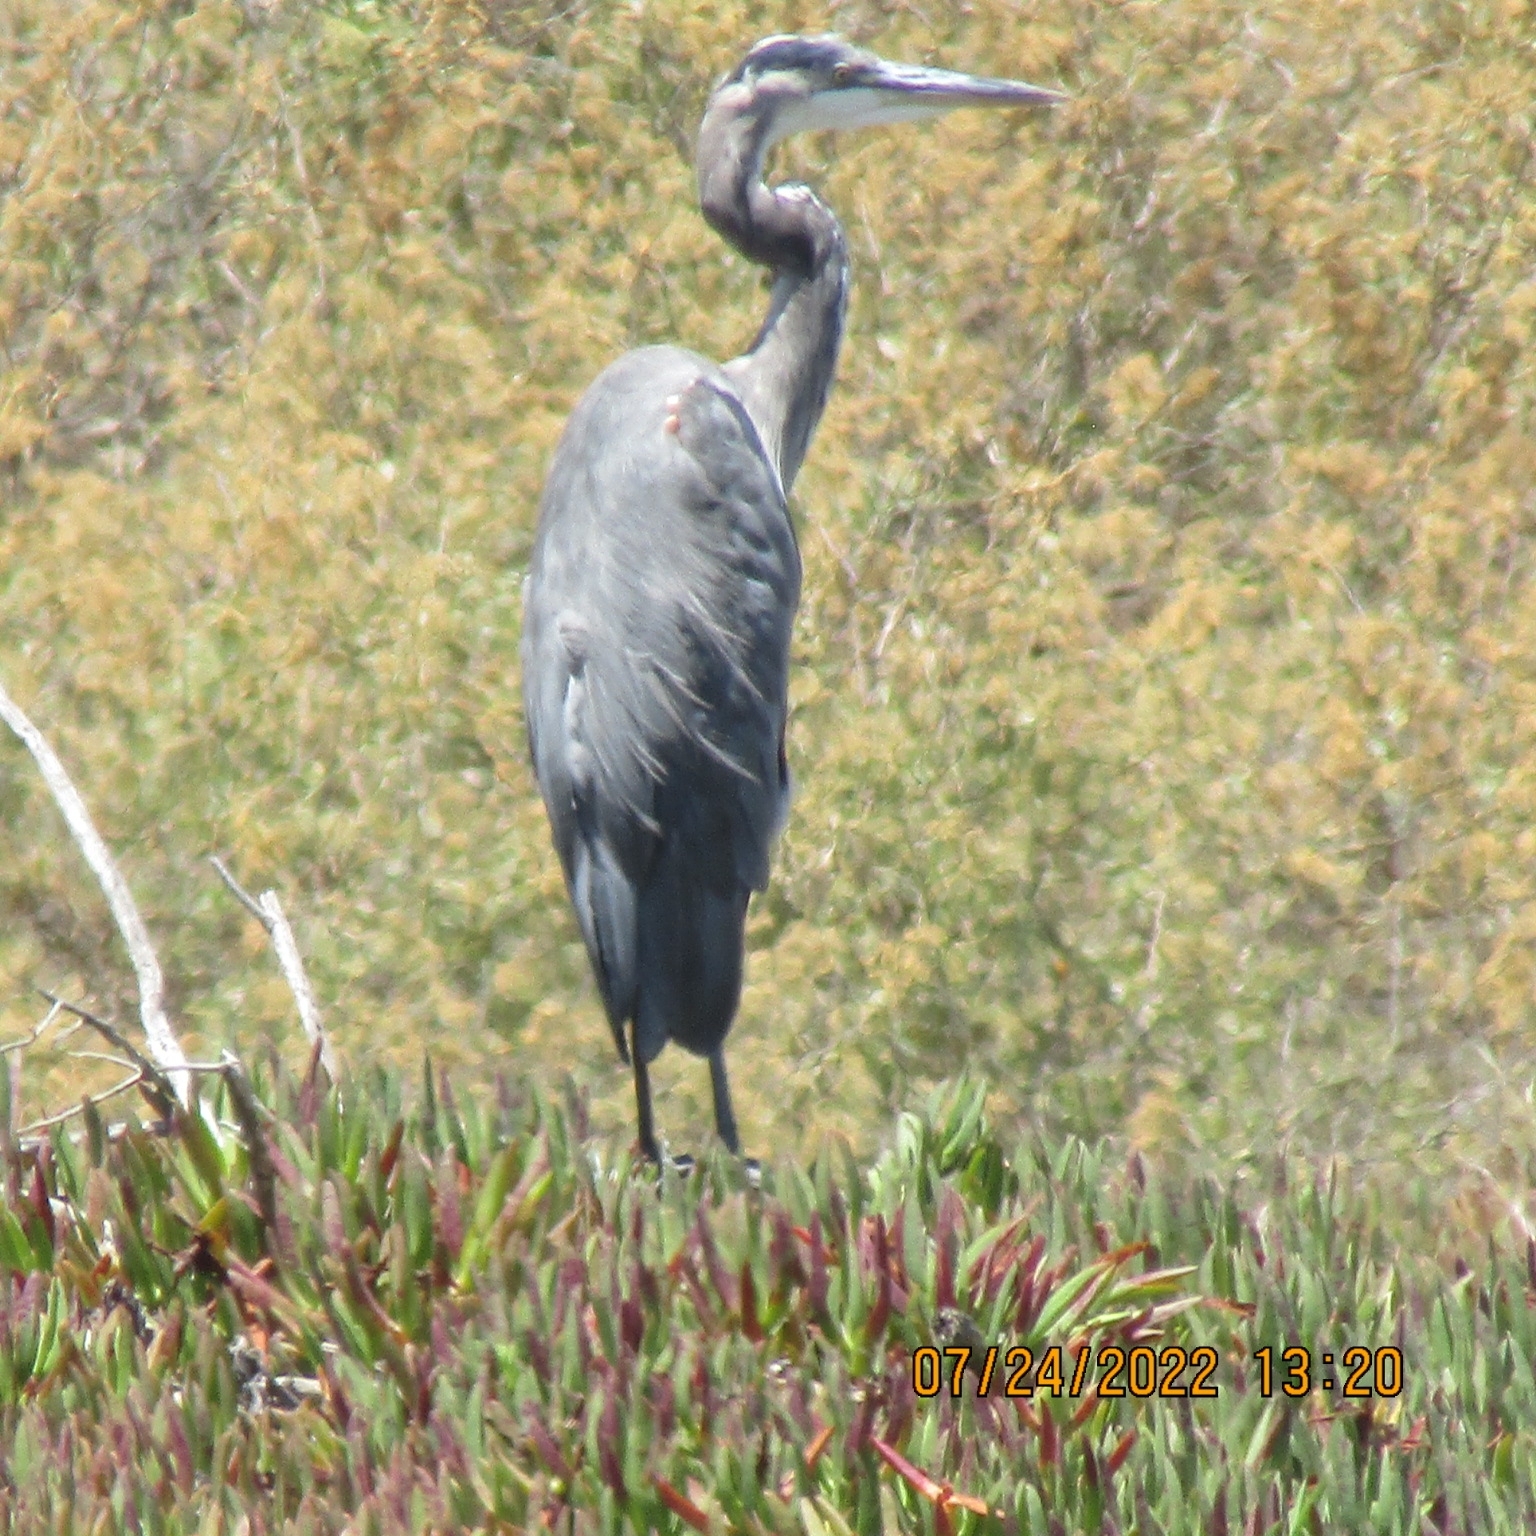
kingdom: Animalia
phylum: Chordata
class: Aves
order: Pelecaniformes
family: Ardeidae
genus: Ardea
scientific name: Ardea herodias
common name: Great blue heron
